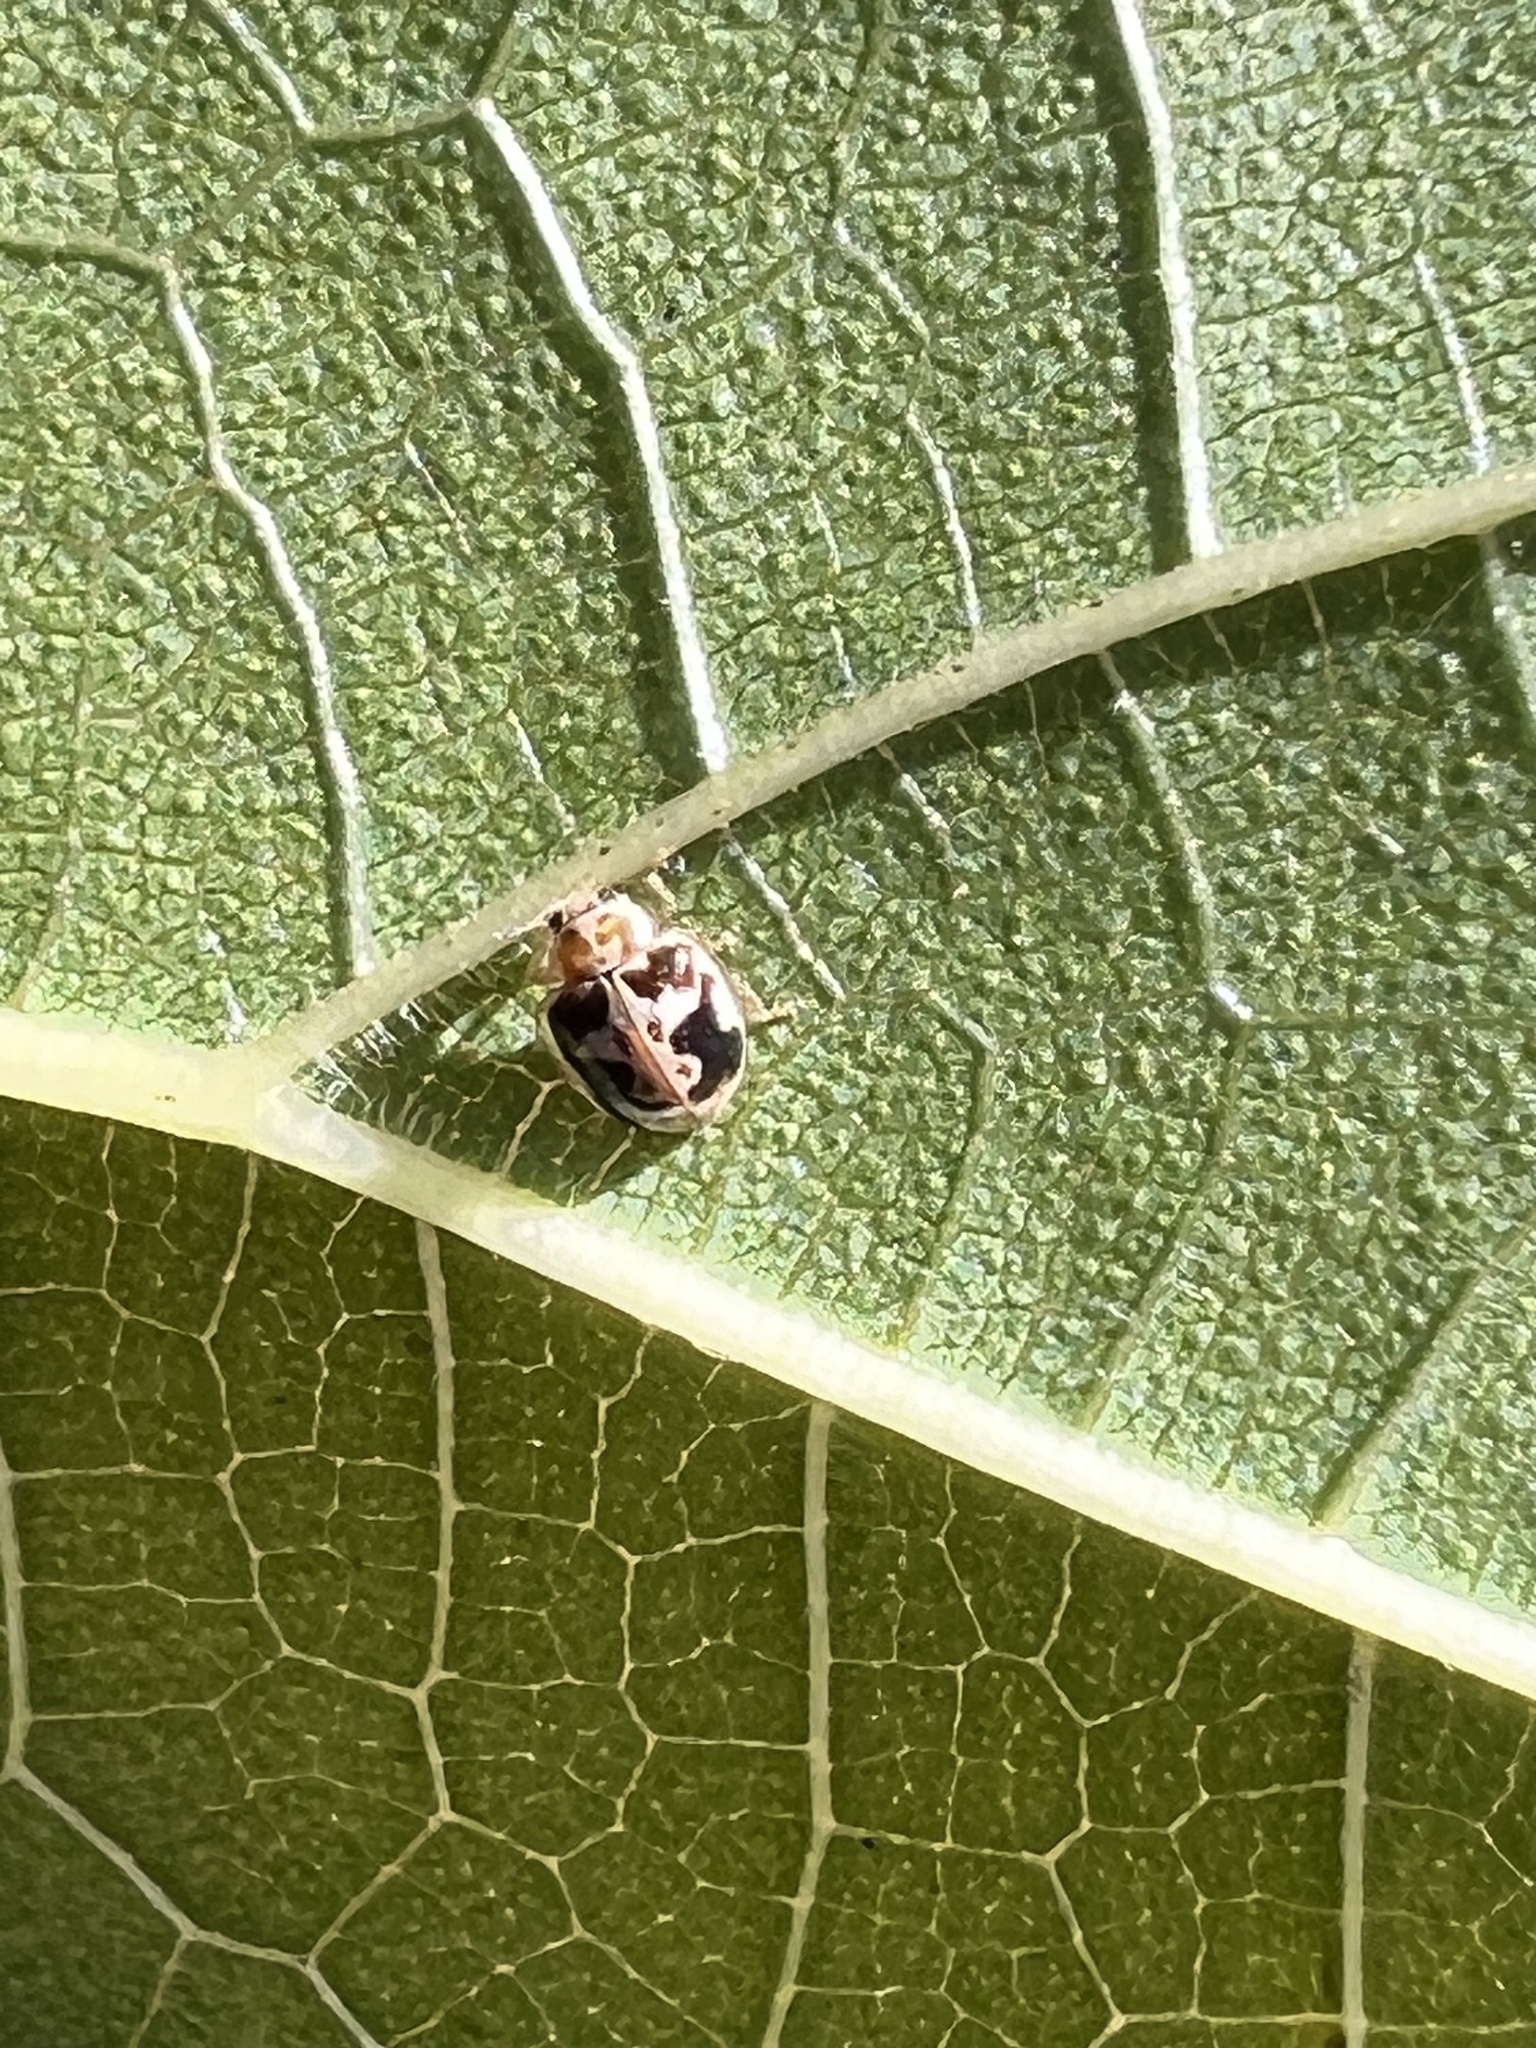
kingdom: Animalia
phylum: Arthropoda
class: Insecta
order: Coleoptera
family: Coccinellidae
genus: Psyllobora
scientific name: Psyllobora renifer
